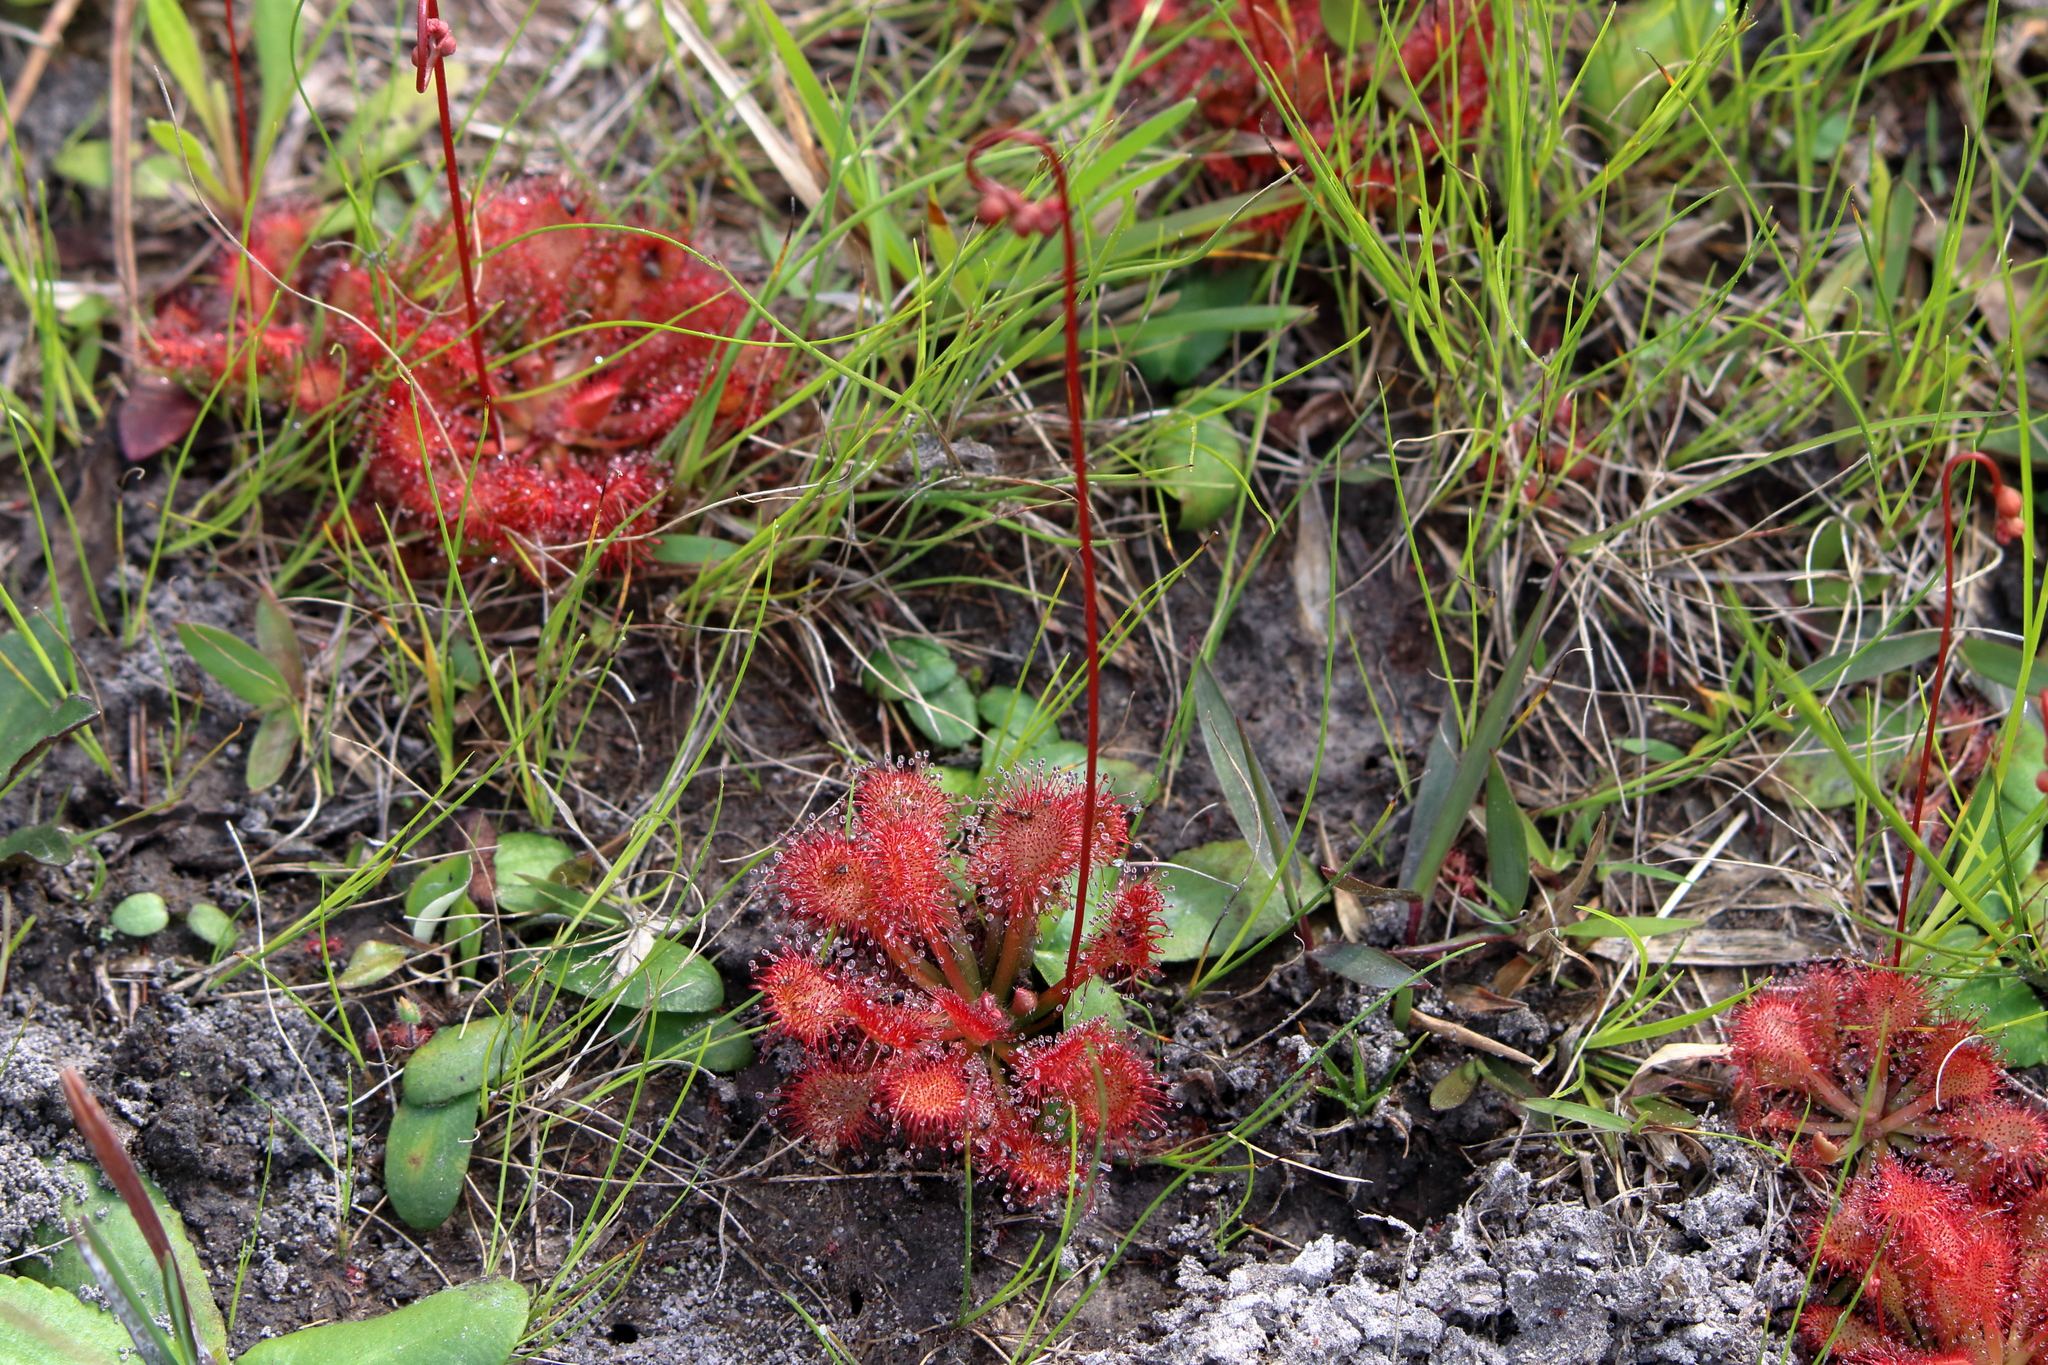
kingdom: Plantae
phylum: Tracheophyta
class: Magnoliopsida
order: Caryophyllales
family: Droseraceae
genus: Drosera
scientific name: Drosera capillaris
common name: Pink sundew
